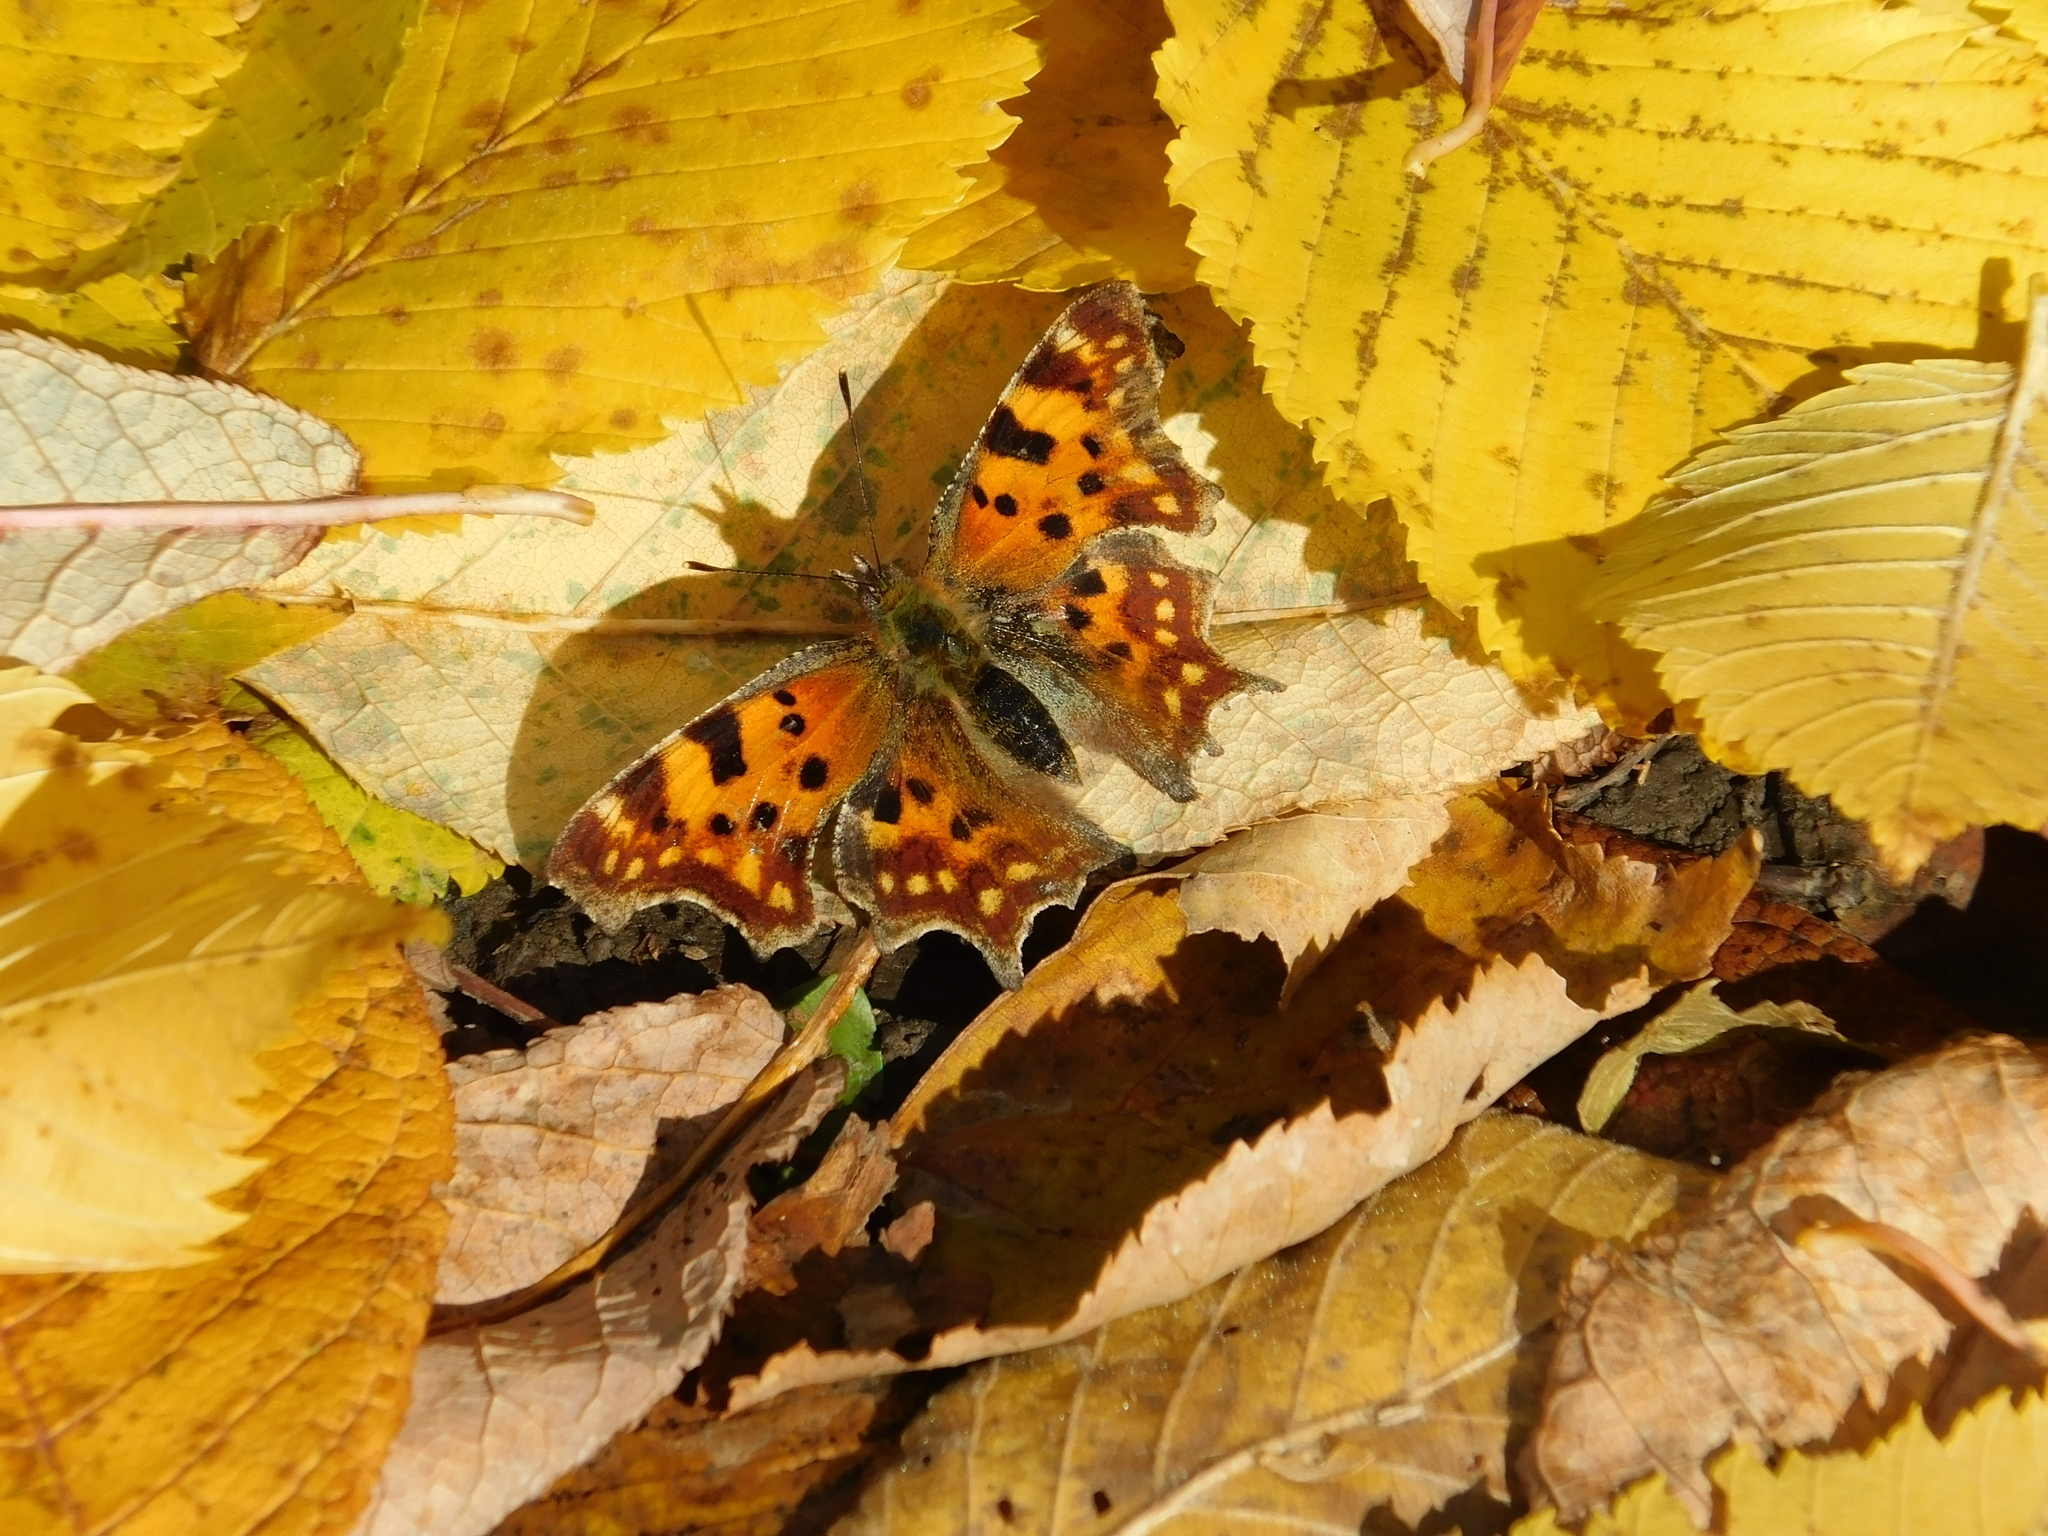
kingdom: Animalia
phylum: Arthropoda
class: Insecta
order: Lepidoptera
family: Nymphalidae
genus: Polygonia
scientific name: Polygonia c-album
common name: Comma
